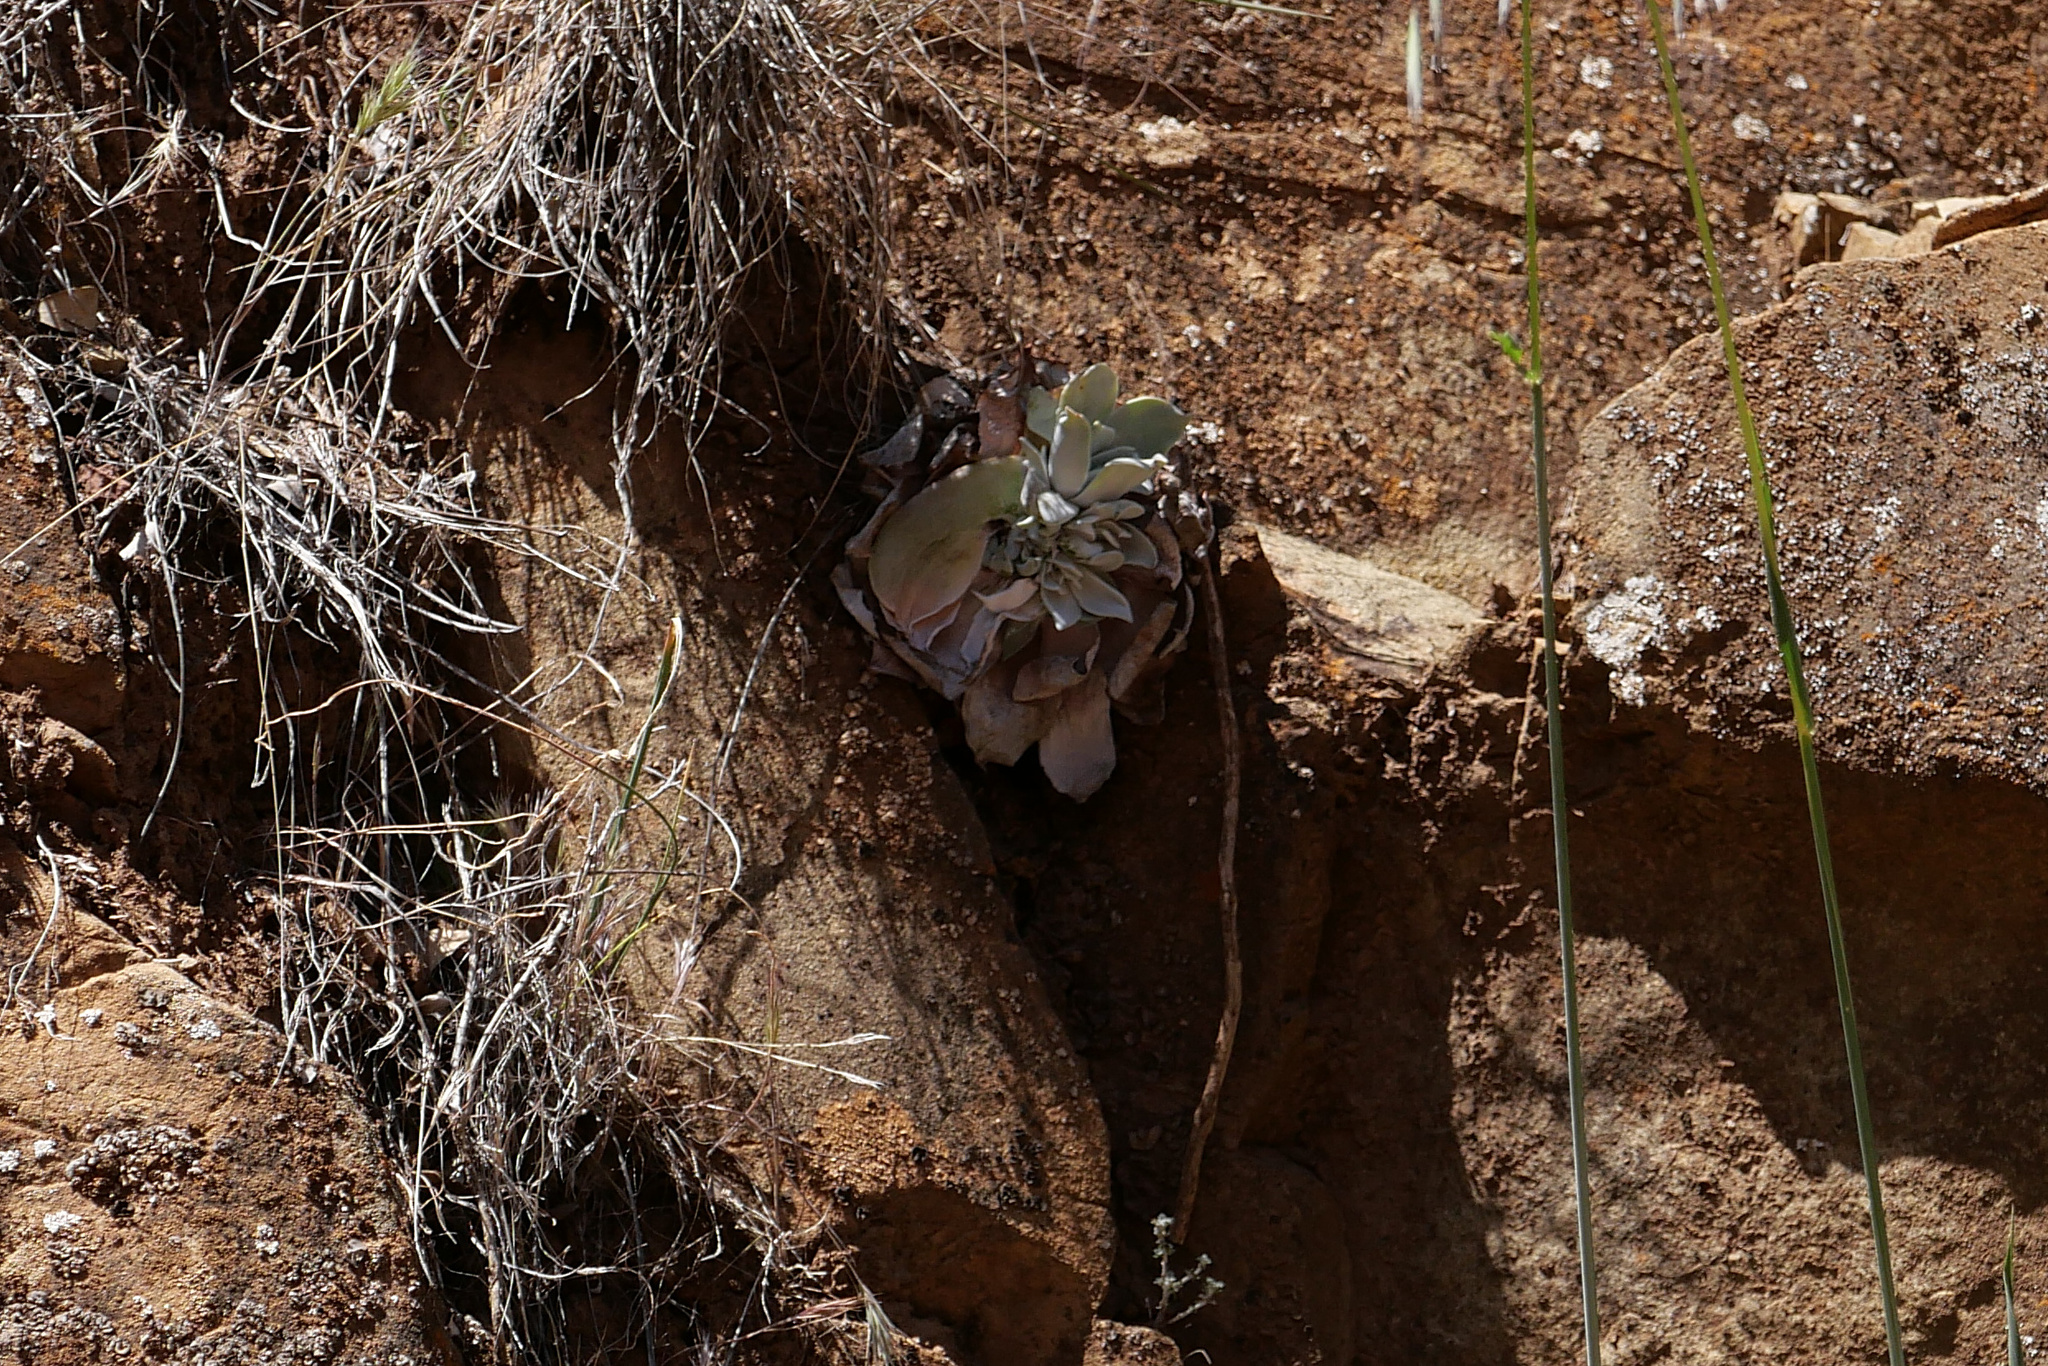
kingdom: Plantae
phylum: Tracheophyta
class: Magnoliopsida
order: Saxifragales
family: Crassulaceae
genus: Dudleya
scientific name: Dudleya pulverulenta
